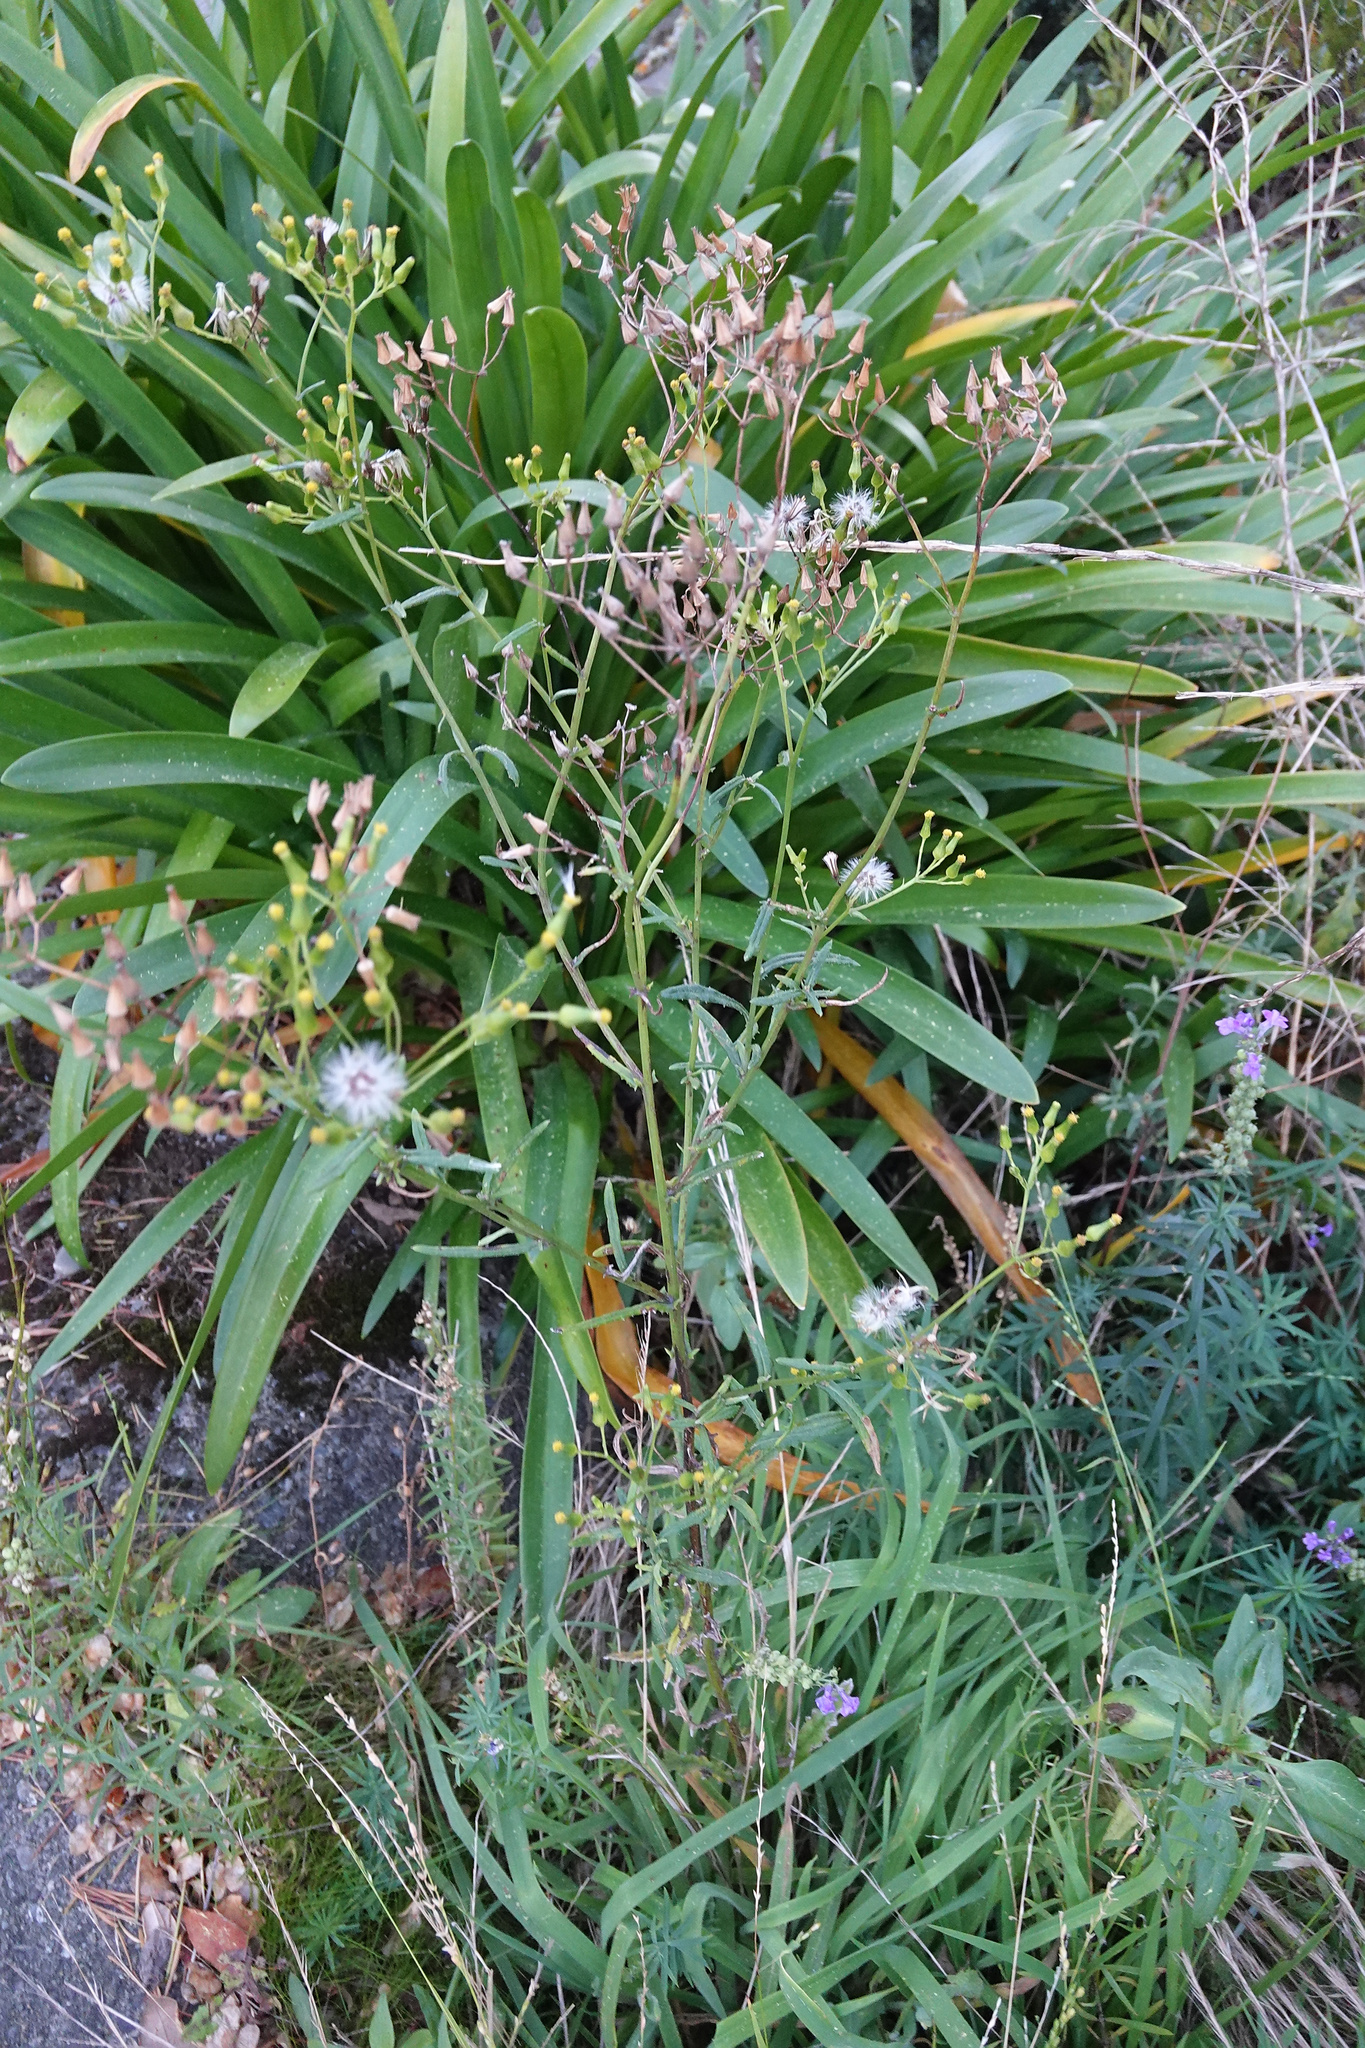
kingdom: Plantae
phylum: Tracheophyta
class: Magnoliopsida
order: Asterales
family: Asteraceae
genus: Senecio
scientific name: Senecio hispidulus
